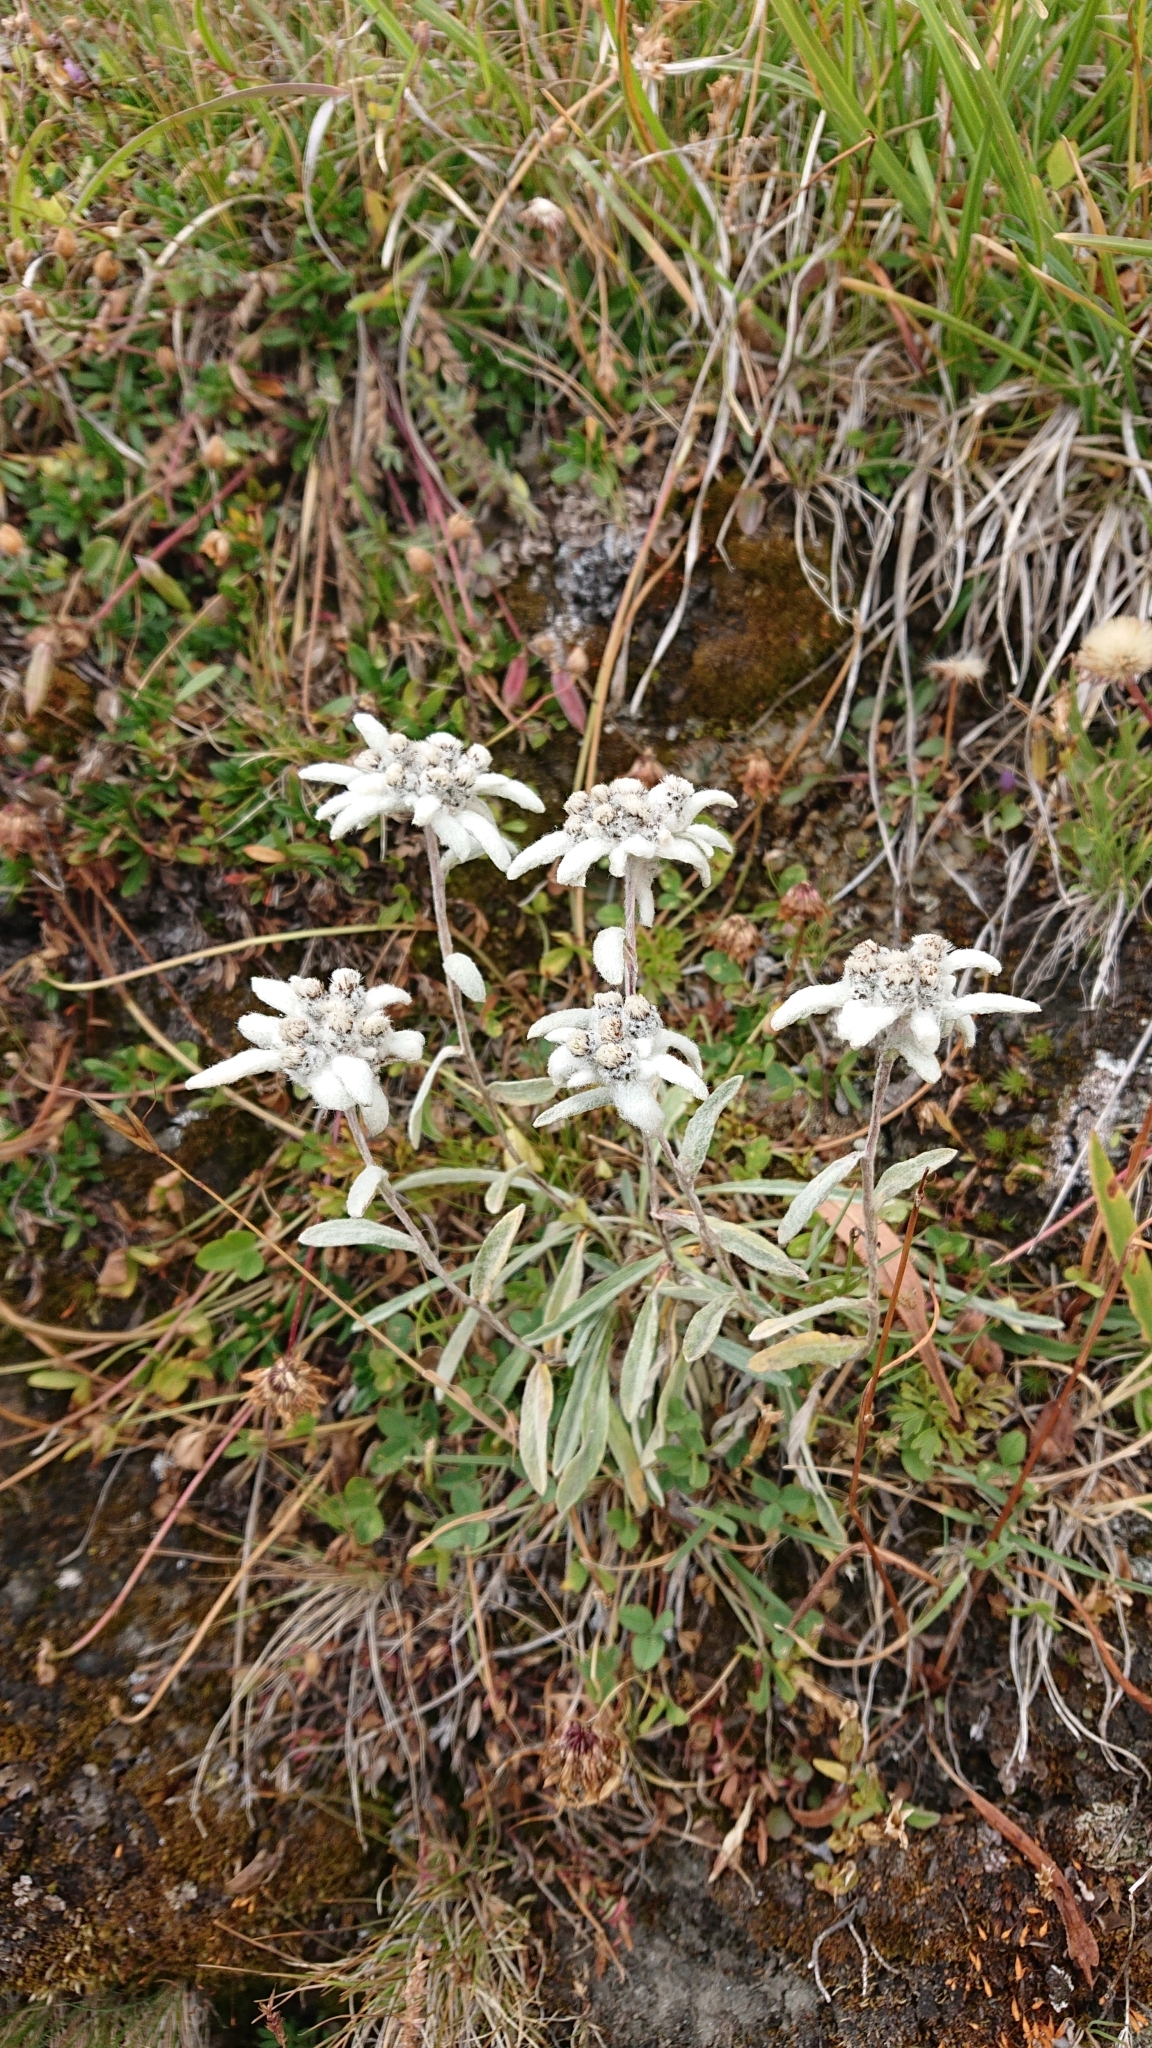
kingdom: Plantae
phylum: Tracheophyta
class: Magnoliopsida
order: Asterales
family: Asteraceae
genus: Leontopodium
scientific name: Leontopodium nivale
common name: Edelweiss
